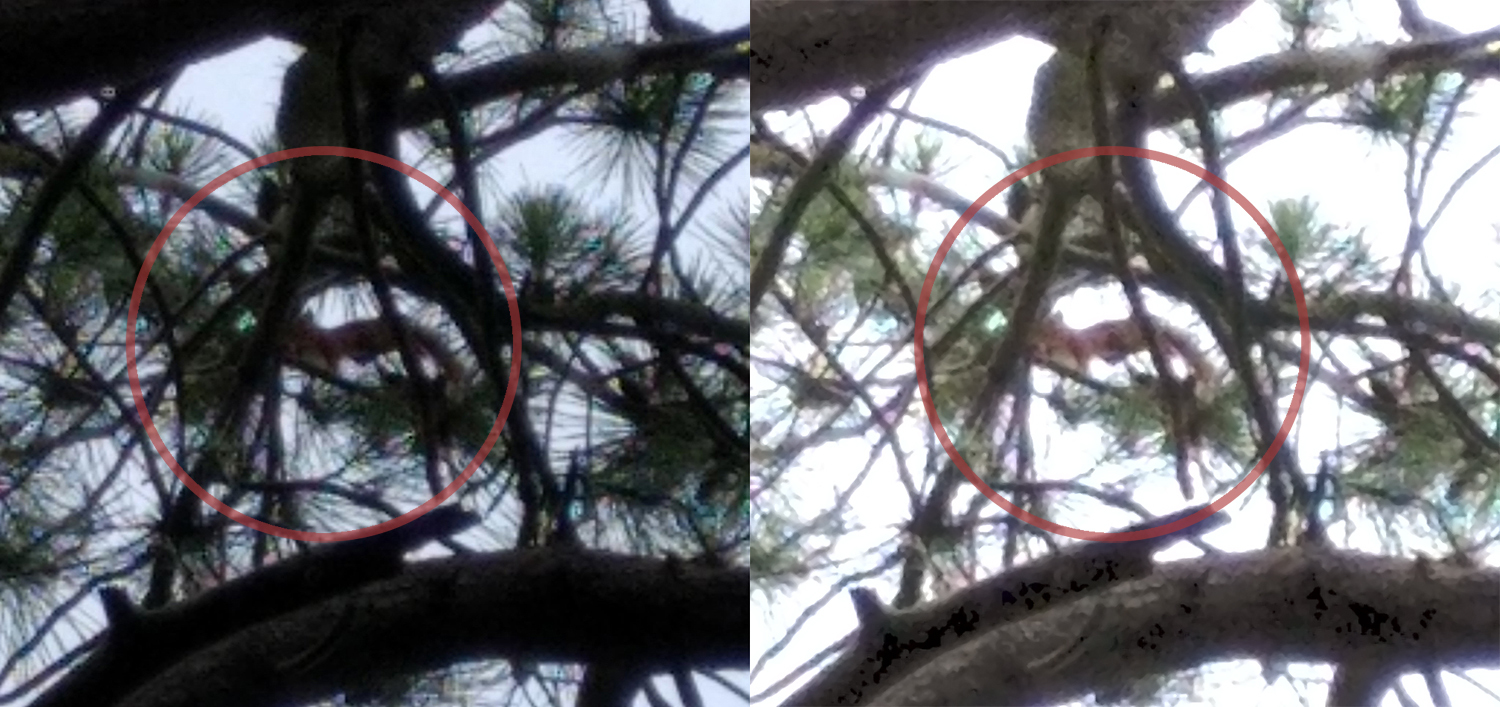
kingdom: Animalia
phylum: Chordata
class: Mammalia
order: Rodentia
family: Sciuridae
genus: Sciurus
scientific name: Sciurus vulgaris
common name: Eurasian red squirrel
